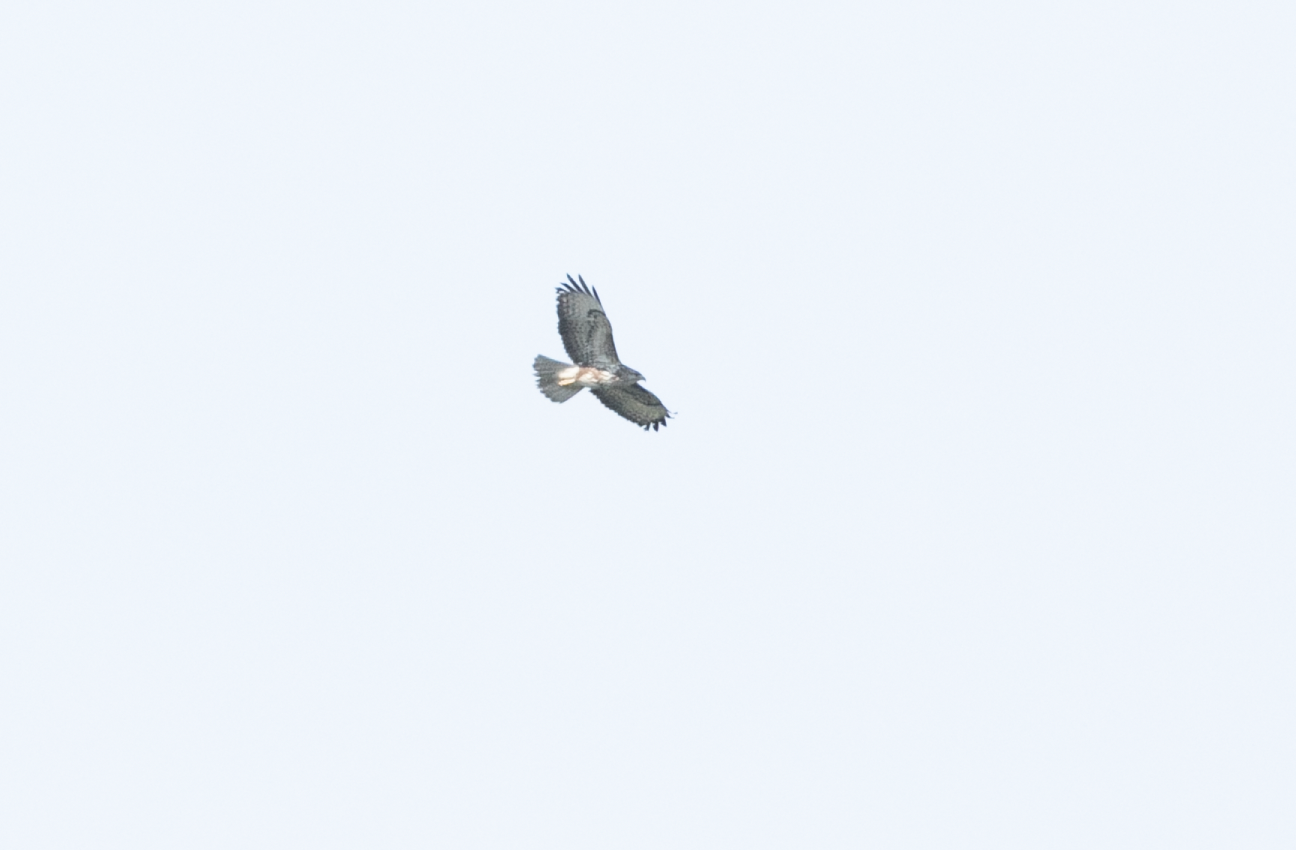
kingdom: Animalia
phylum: Chordata
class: Aves
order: Accipitriformes
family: Accipitridae
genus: Buteo
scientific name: Buteo buteo
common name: Common buzzard
